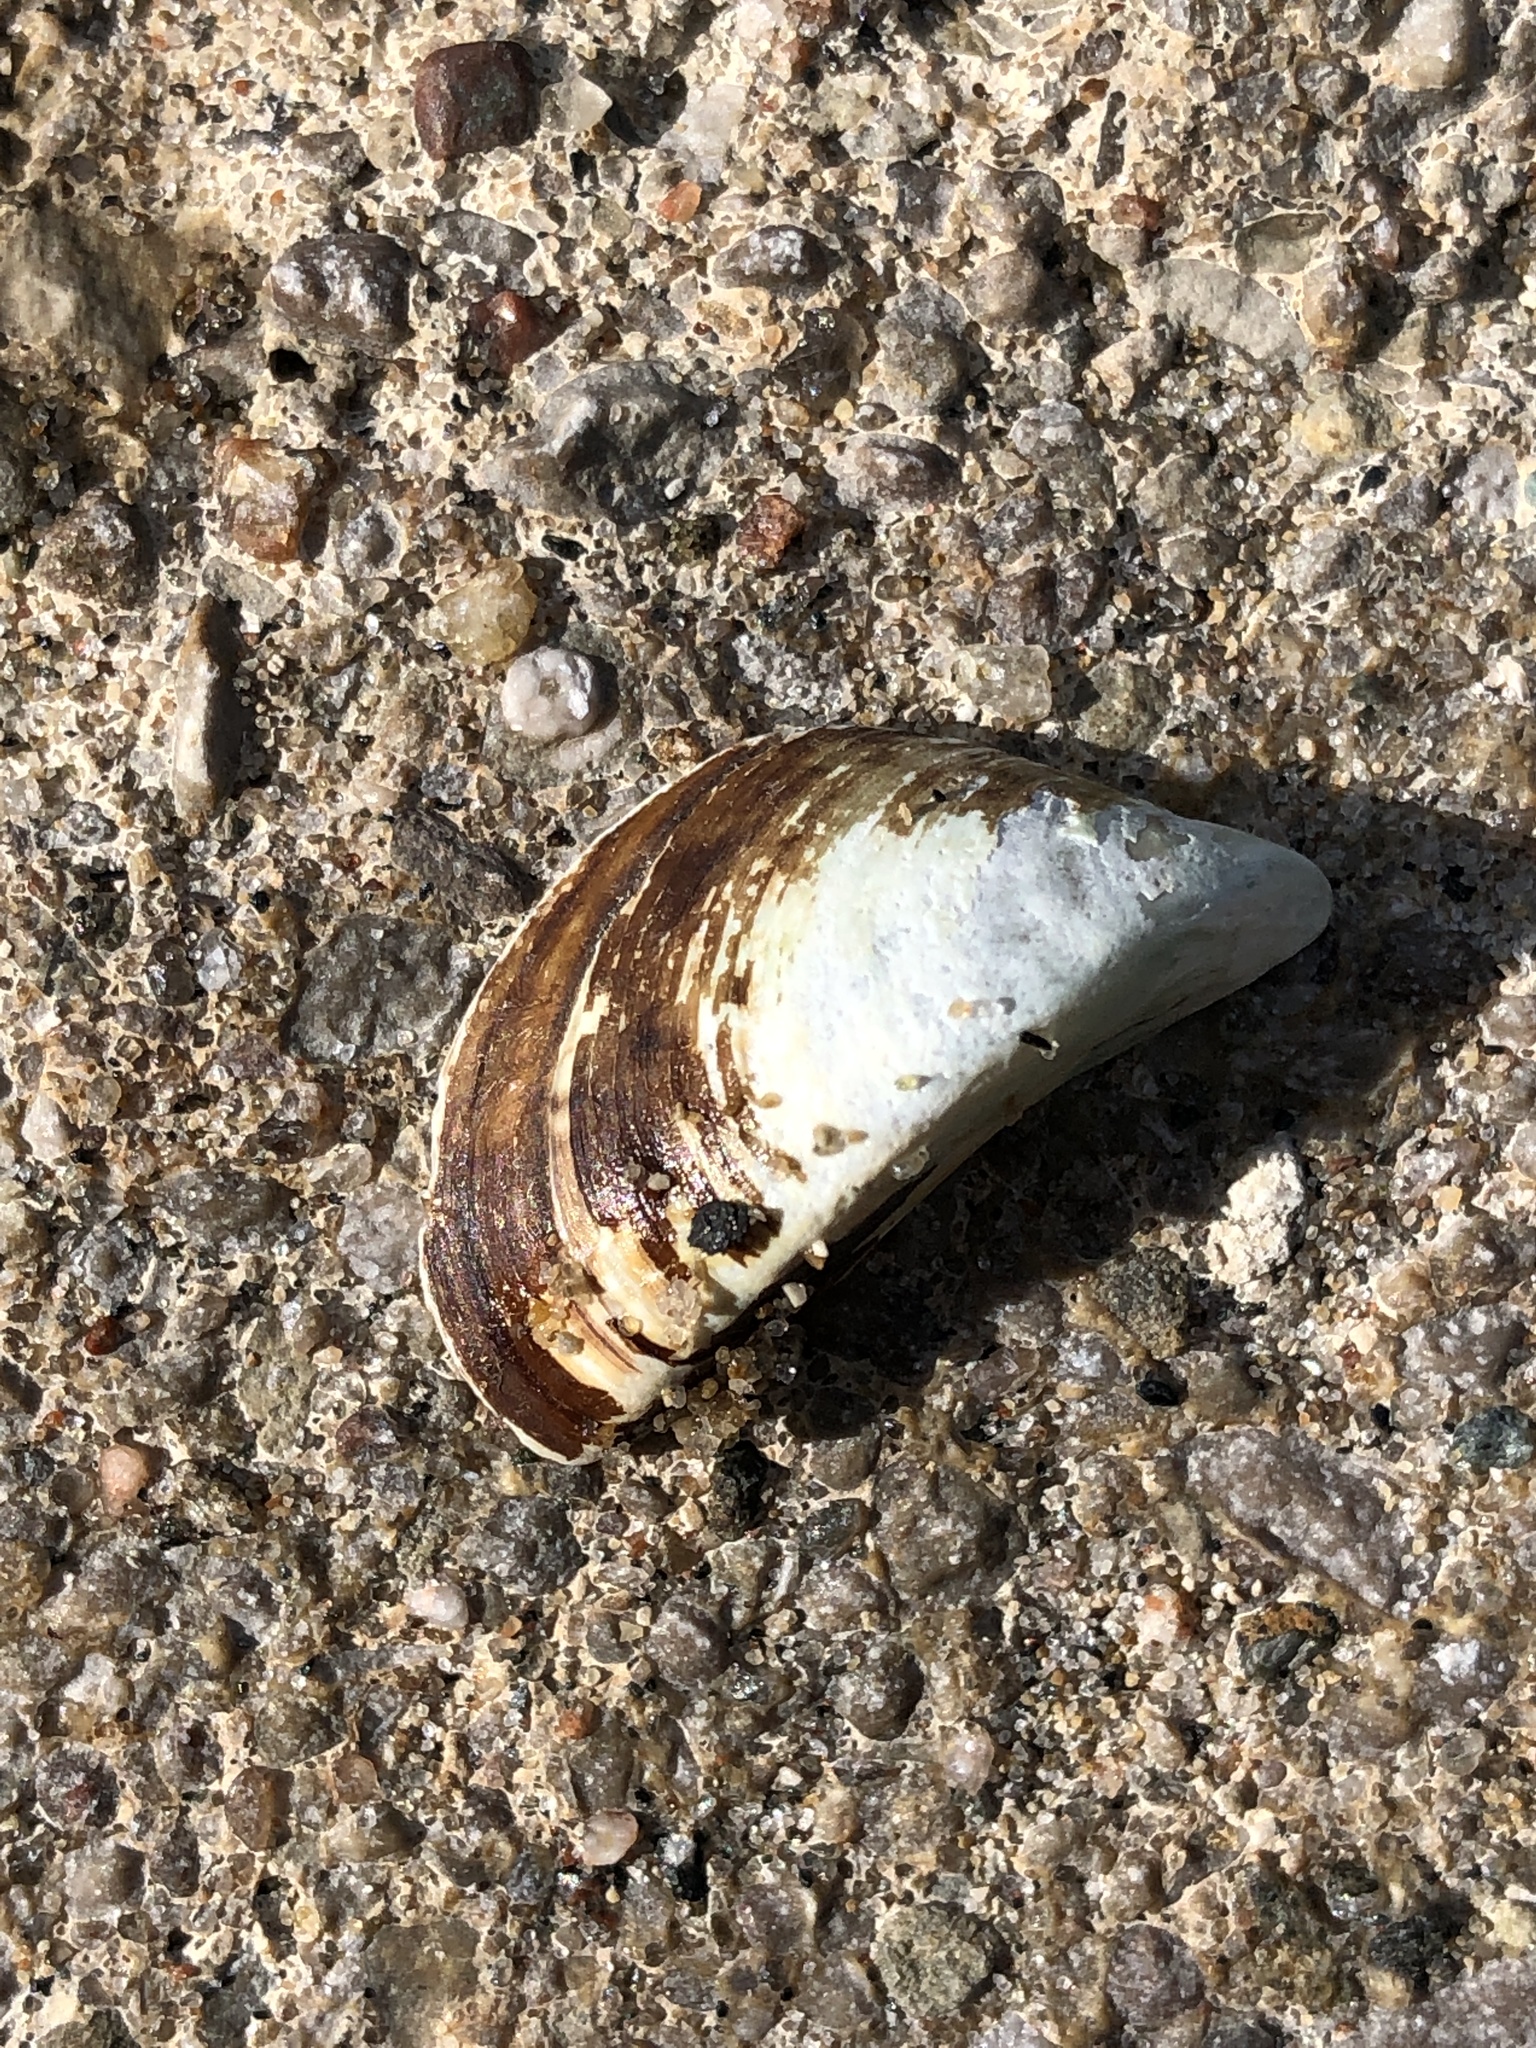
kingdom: Animalia
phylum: Mollusca
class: Bivalvia
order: Myida
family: Dreissenidae
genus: Dreissena
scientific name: Dreissena polymorpha
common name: Zebra mussel
